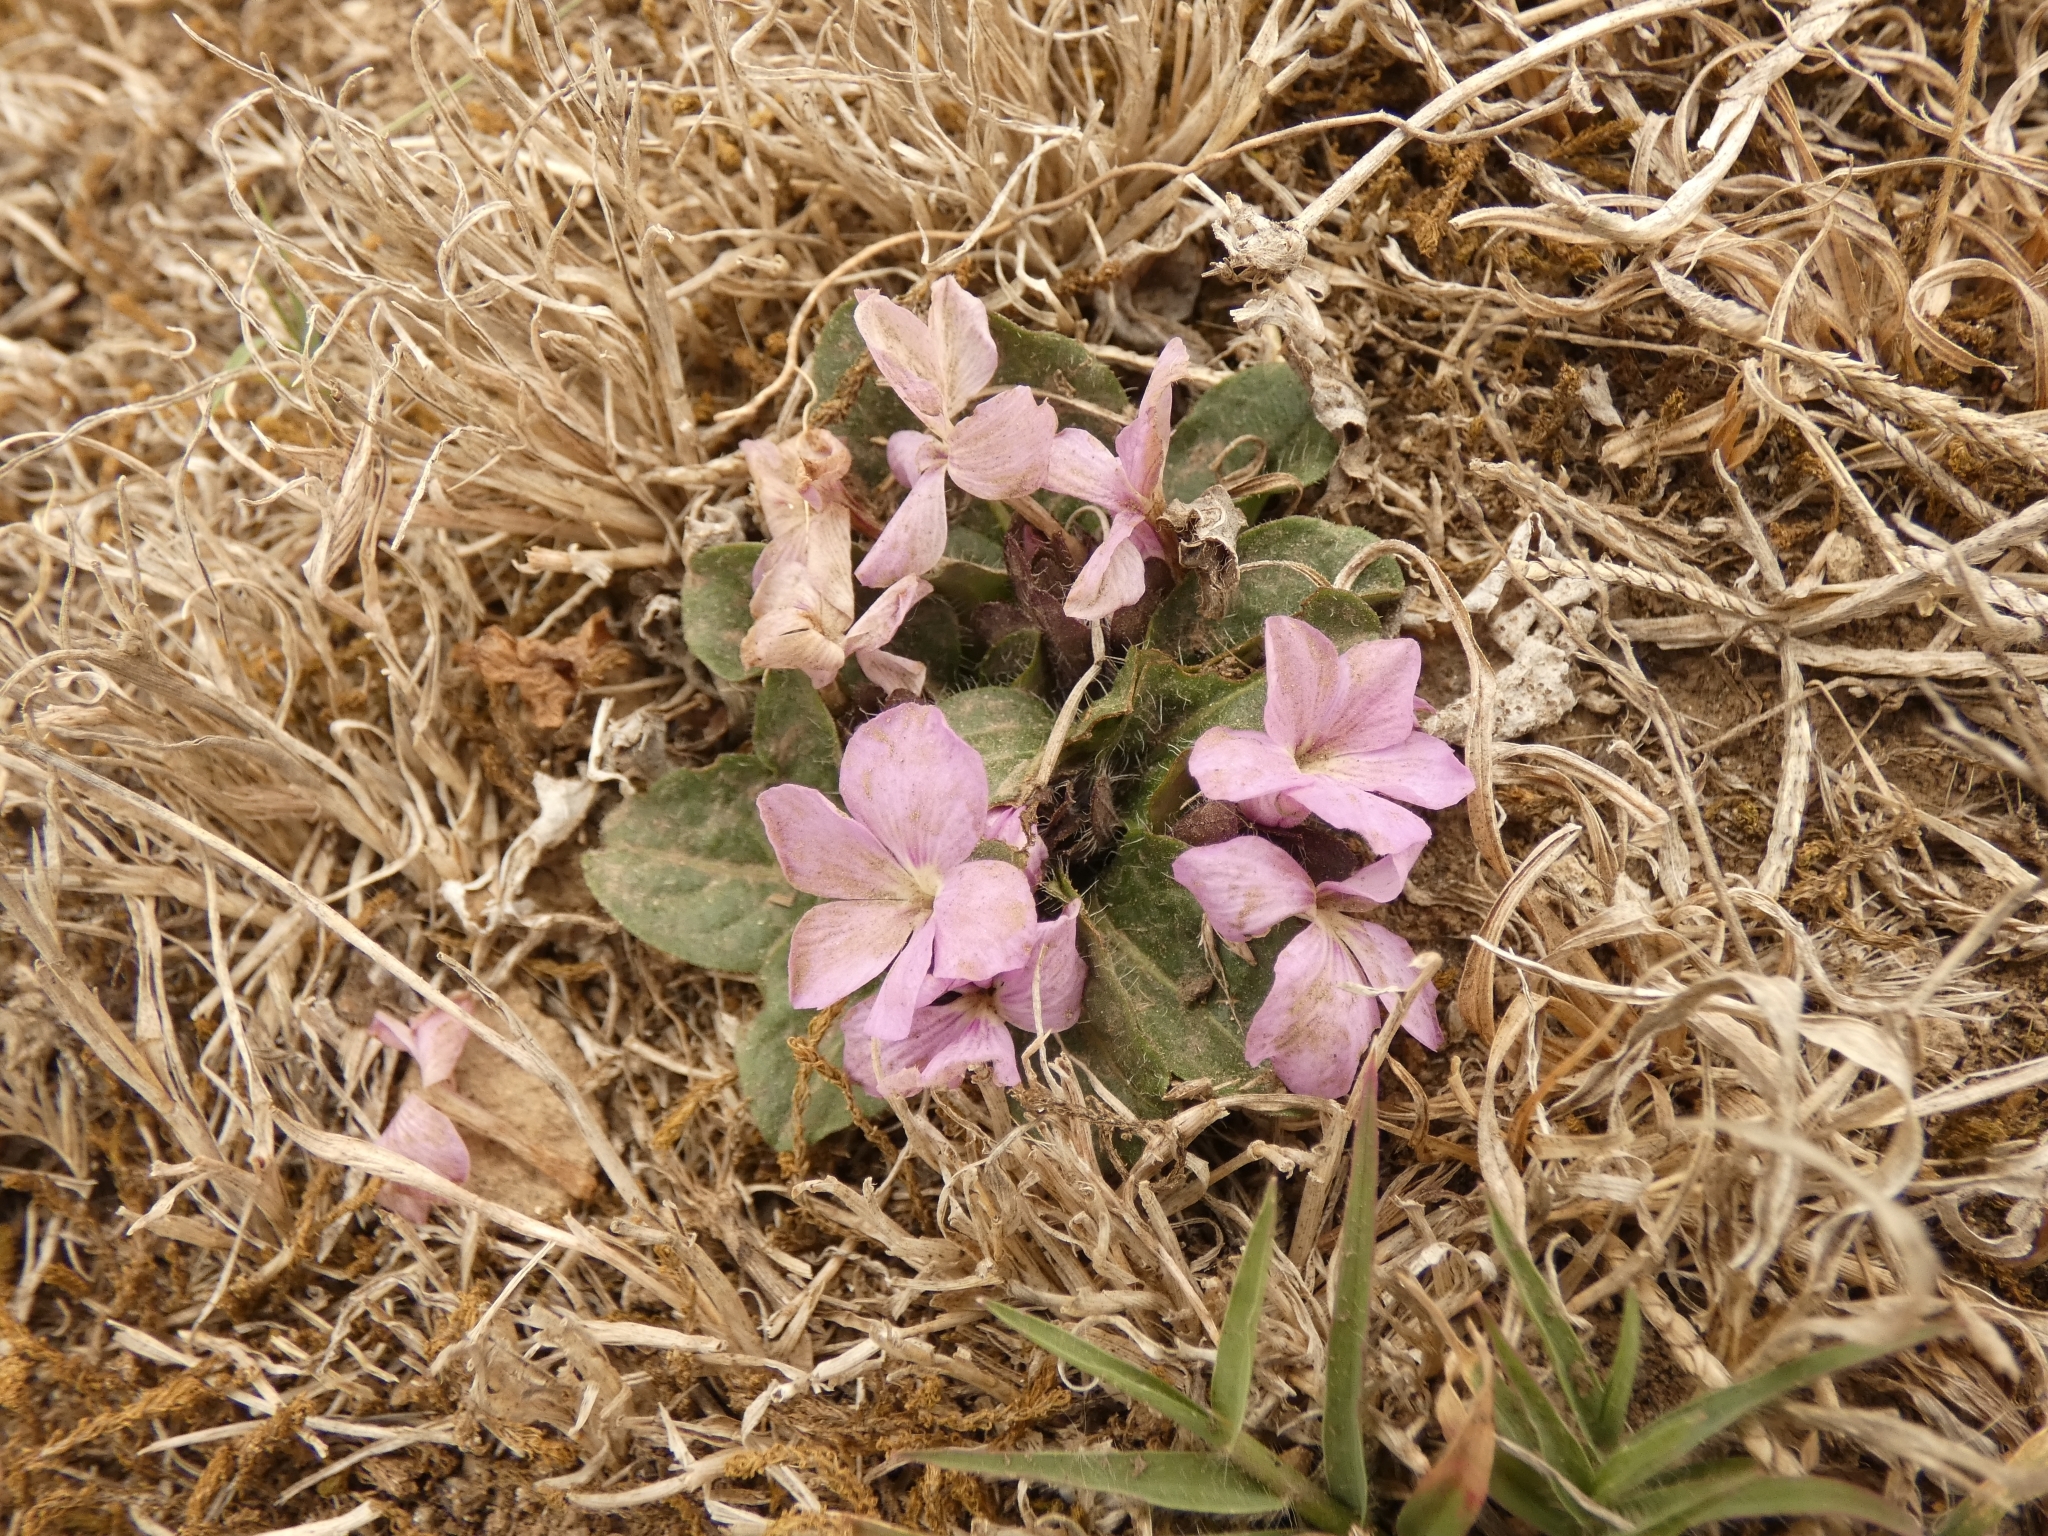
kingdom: Plantae
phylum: Tracheophyta
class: Magnoliopsida
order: Lamiales
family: Acanthaceae
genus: Stenandrium
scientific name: Stenandrium dulce
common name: Pinklet
